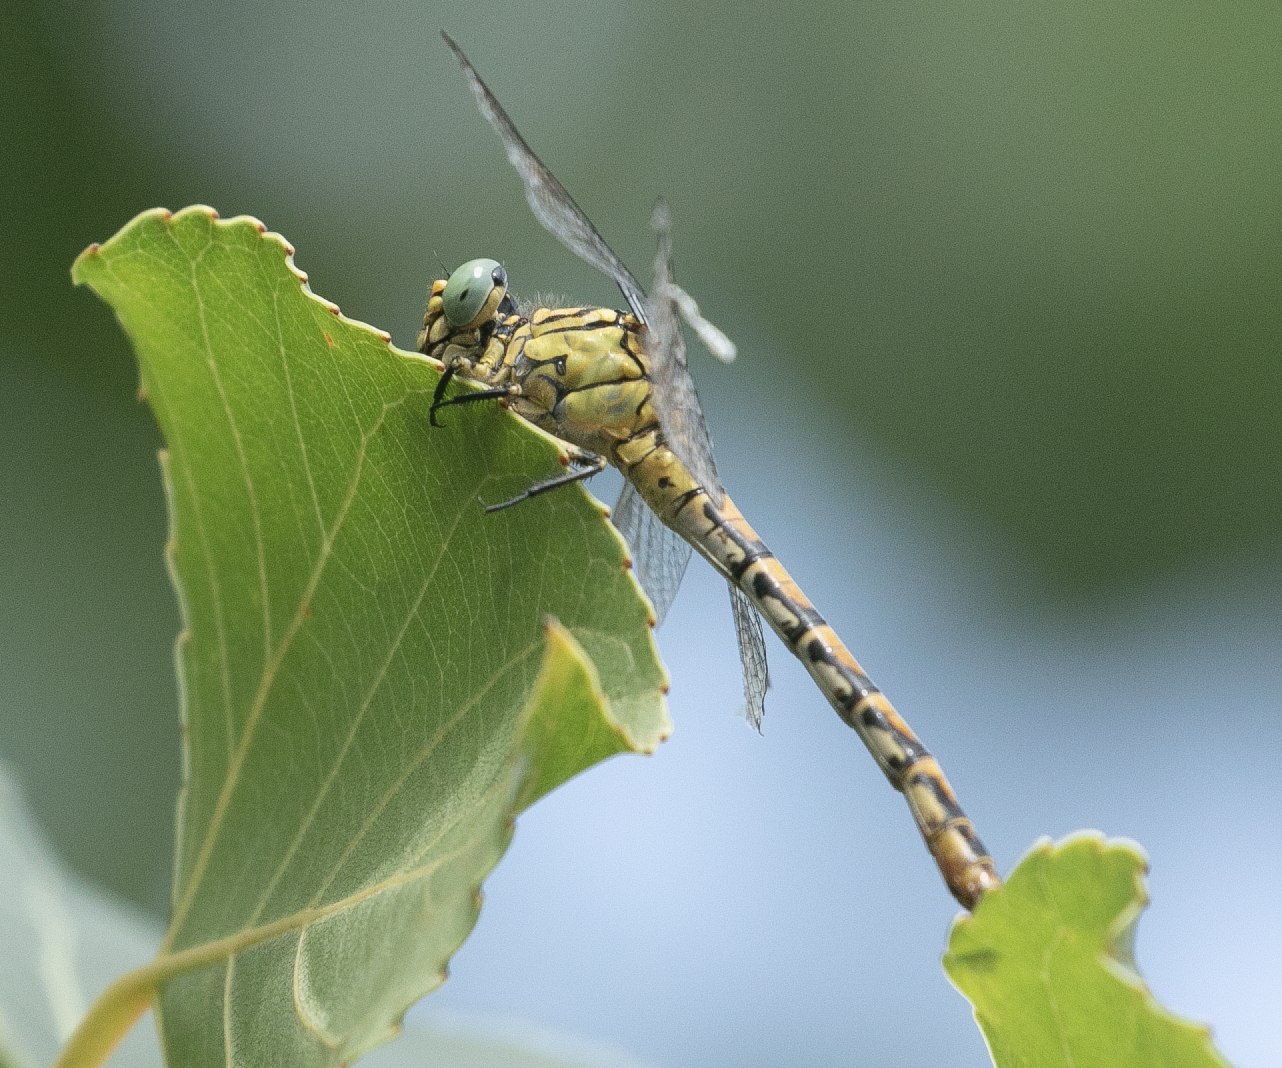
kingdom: Animalia
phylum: Arthropoda
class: Insecta
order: Odonata
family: Gomphidae
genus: Onychogomphus
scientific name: Onychogomphus forcipatus
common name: Small pincertail
